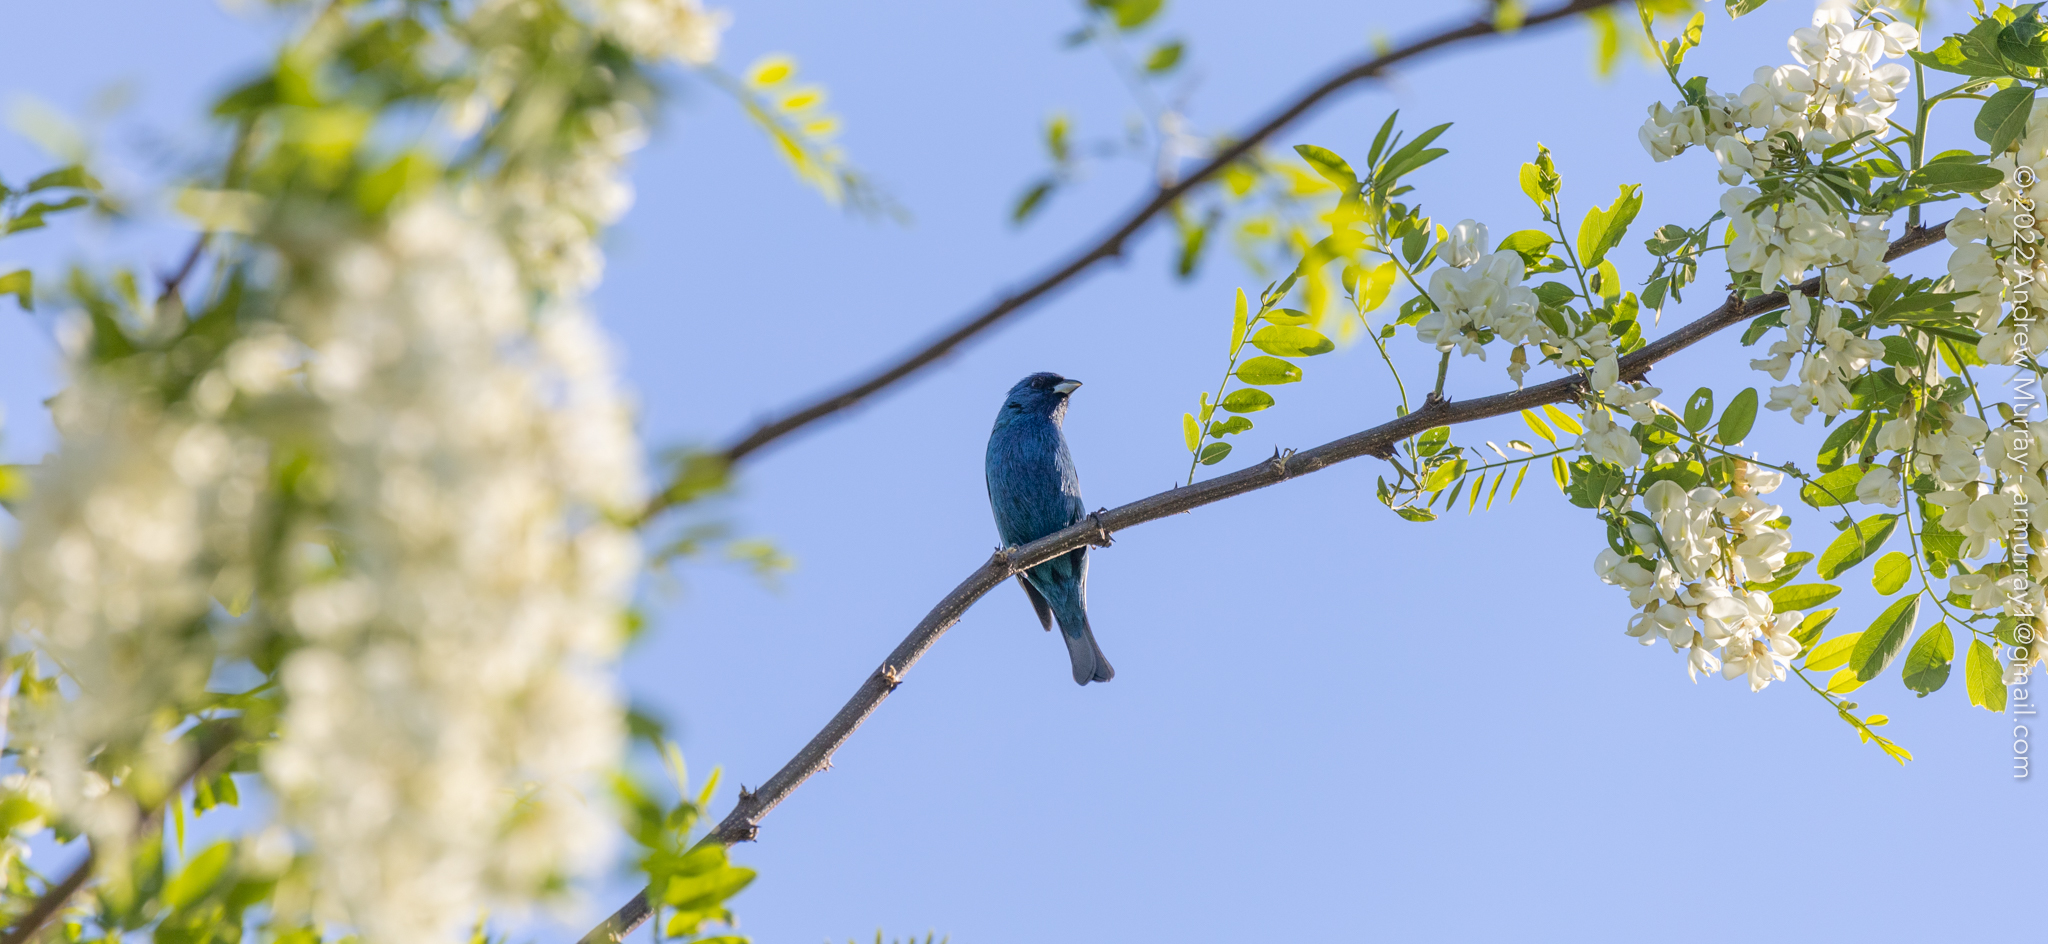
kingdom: Animalia
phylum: Chordata
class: Aves
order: Passeriformes
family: Cardinalidae
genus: Passerina
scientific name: Passerina cyanea
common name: Indigo bunting
